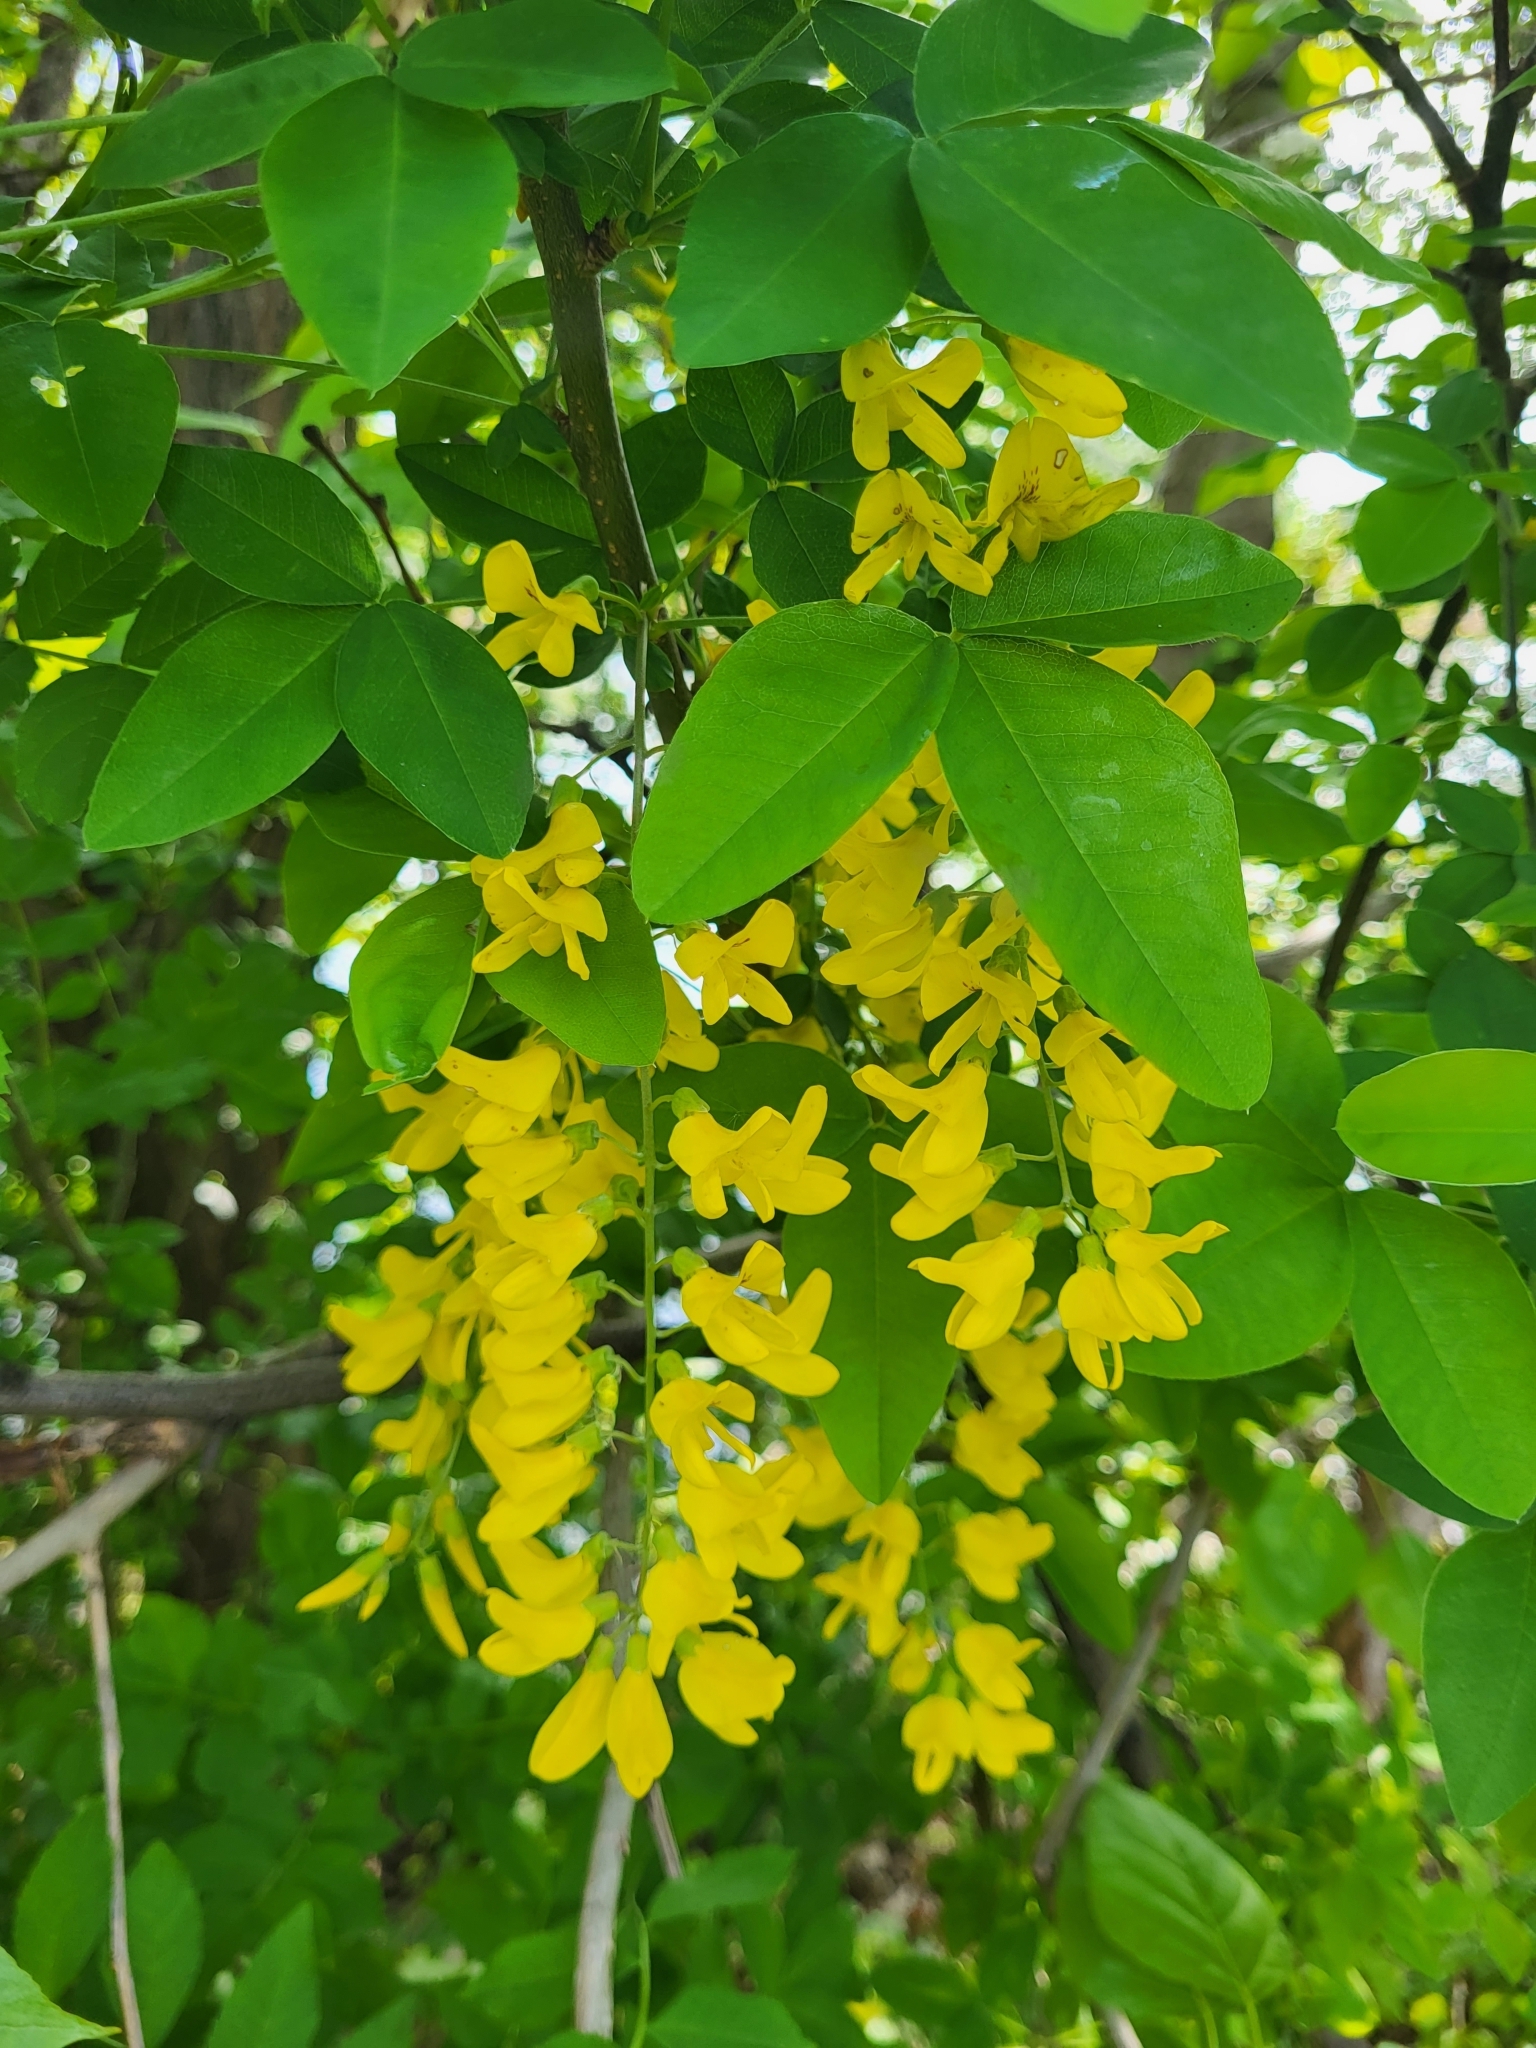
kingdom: Plantae
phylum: Tracheophyta
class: Magnoliopsida
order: Fabales
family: Fabaceae
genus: Laburnum
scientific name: Laburnum anagyroides
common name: Laburnum
